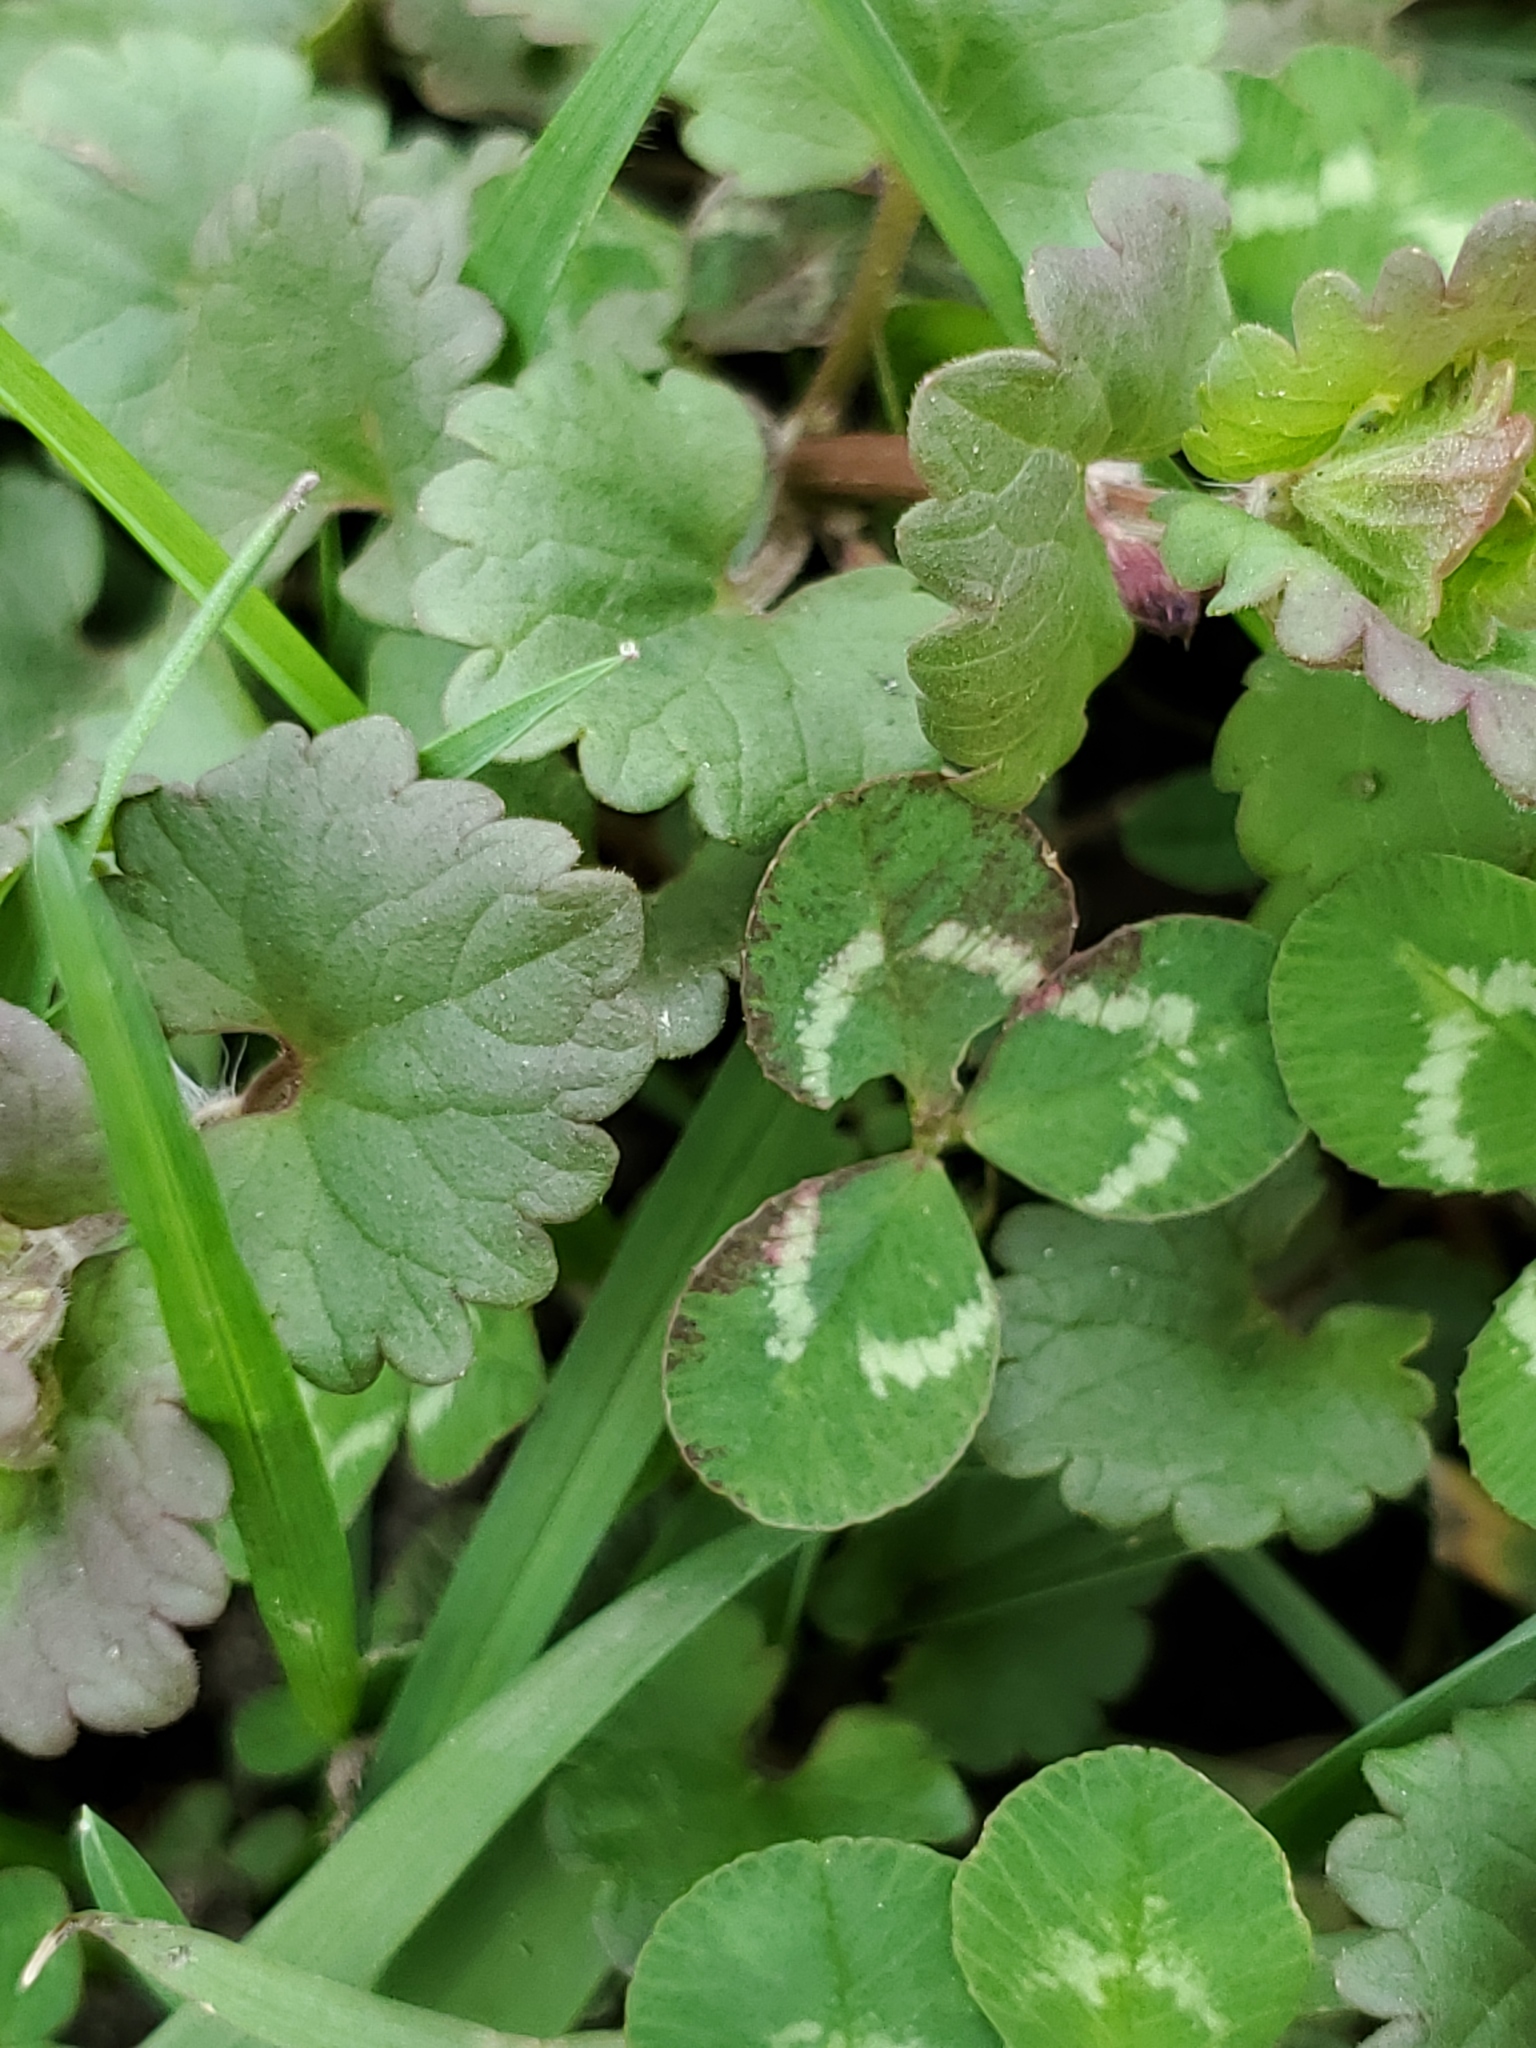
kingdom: Plantae
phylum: Tracheophyta
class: Magnoliopsida
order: Fabales
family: Fabaceae
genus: Trifolium
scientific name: Trifolium repens
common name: White clover
